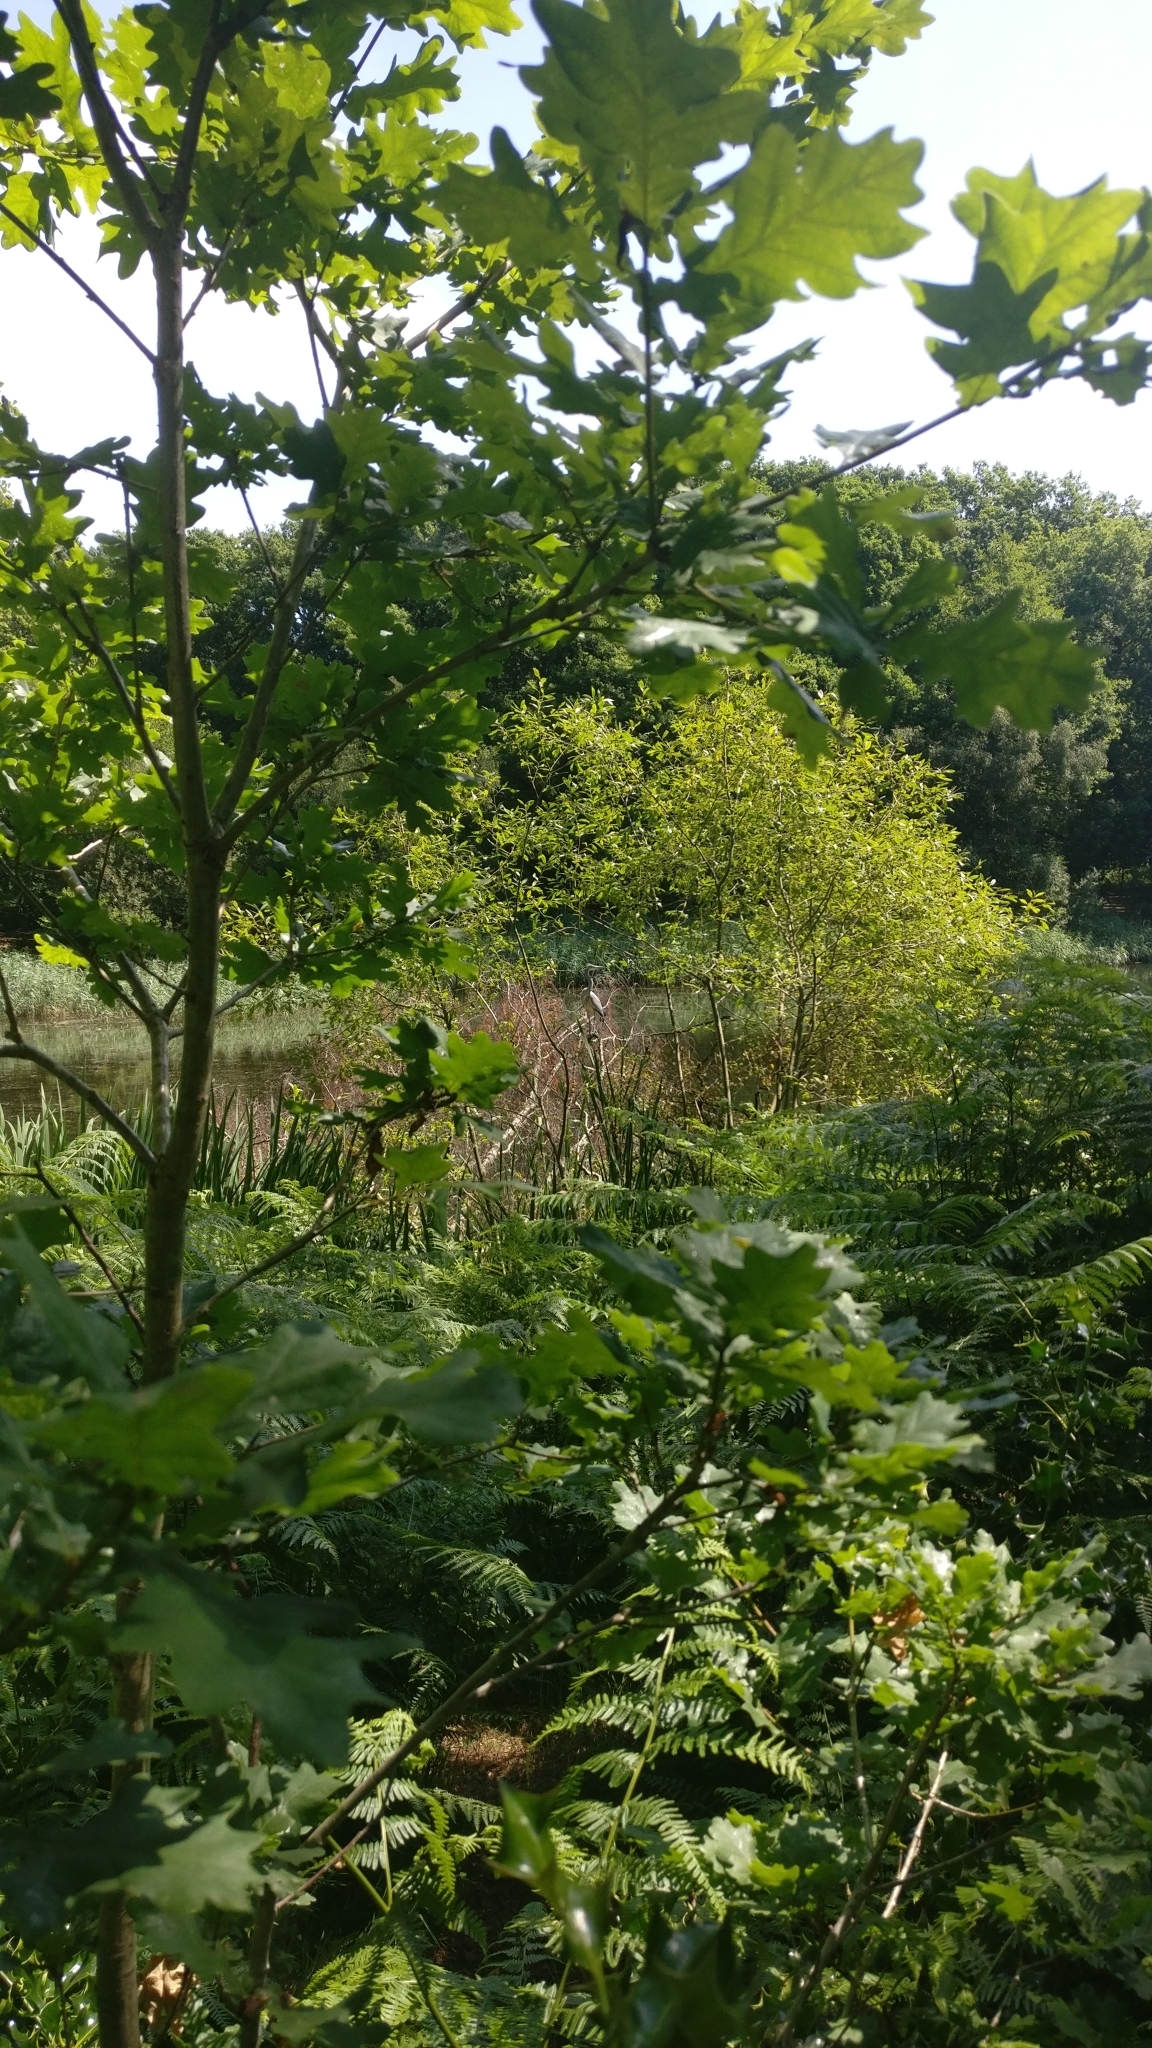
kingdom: Animalia
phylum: Chordata
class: Aves
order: Pelecaniformes
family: Ardeidae
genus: Ardea
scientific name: Ardea cinerea
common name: Grey heron
